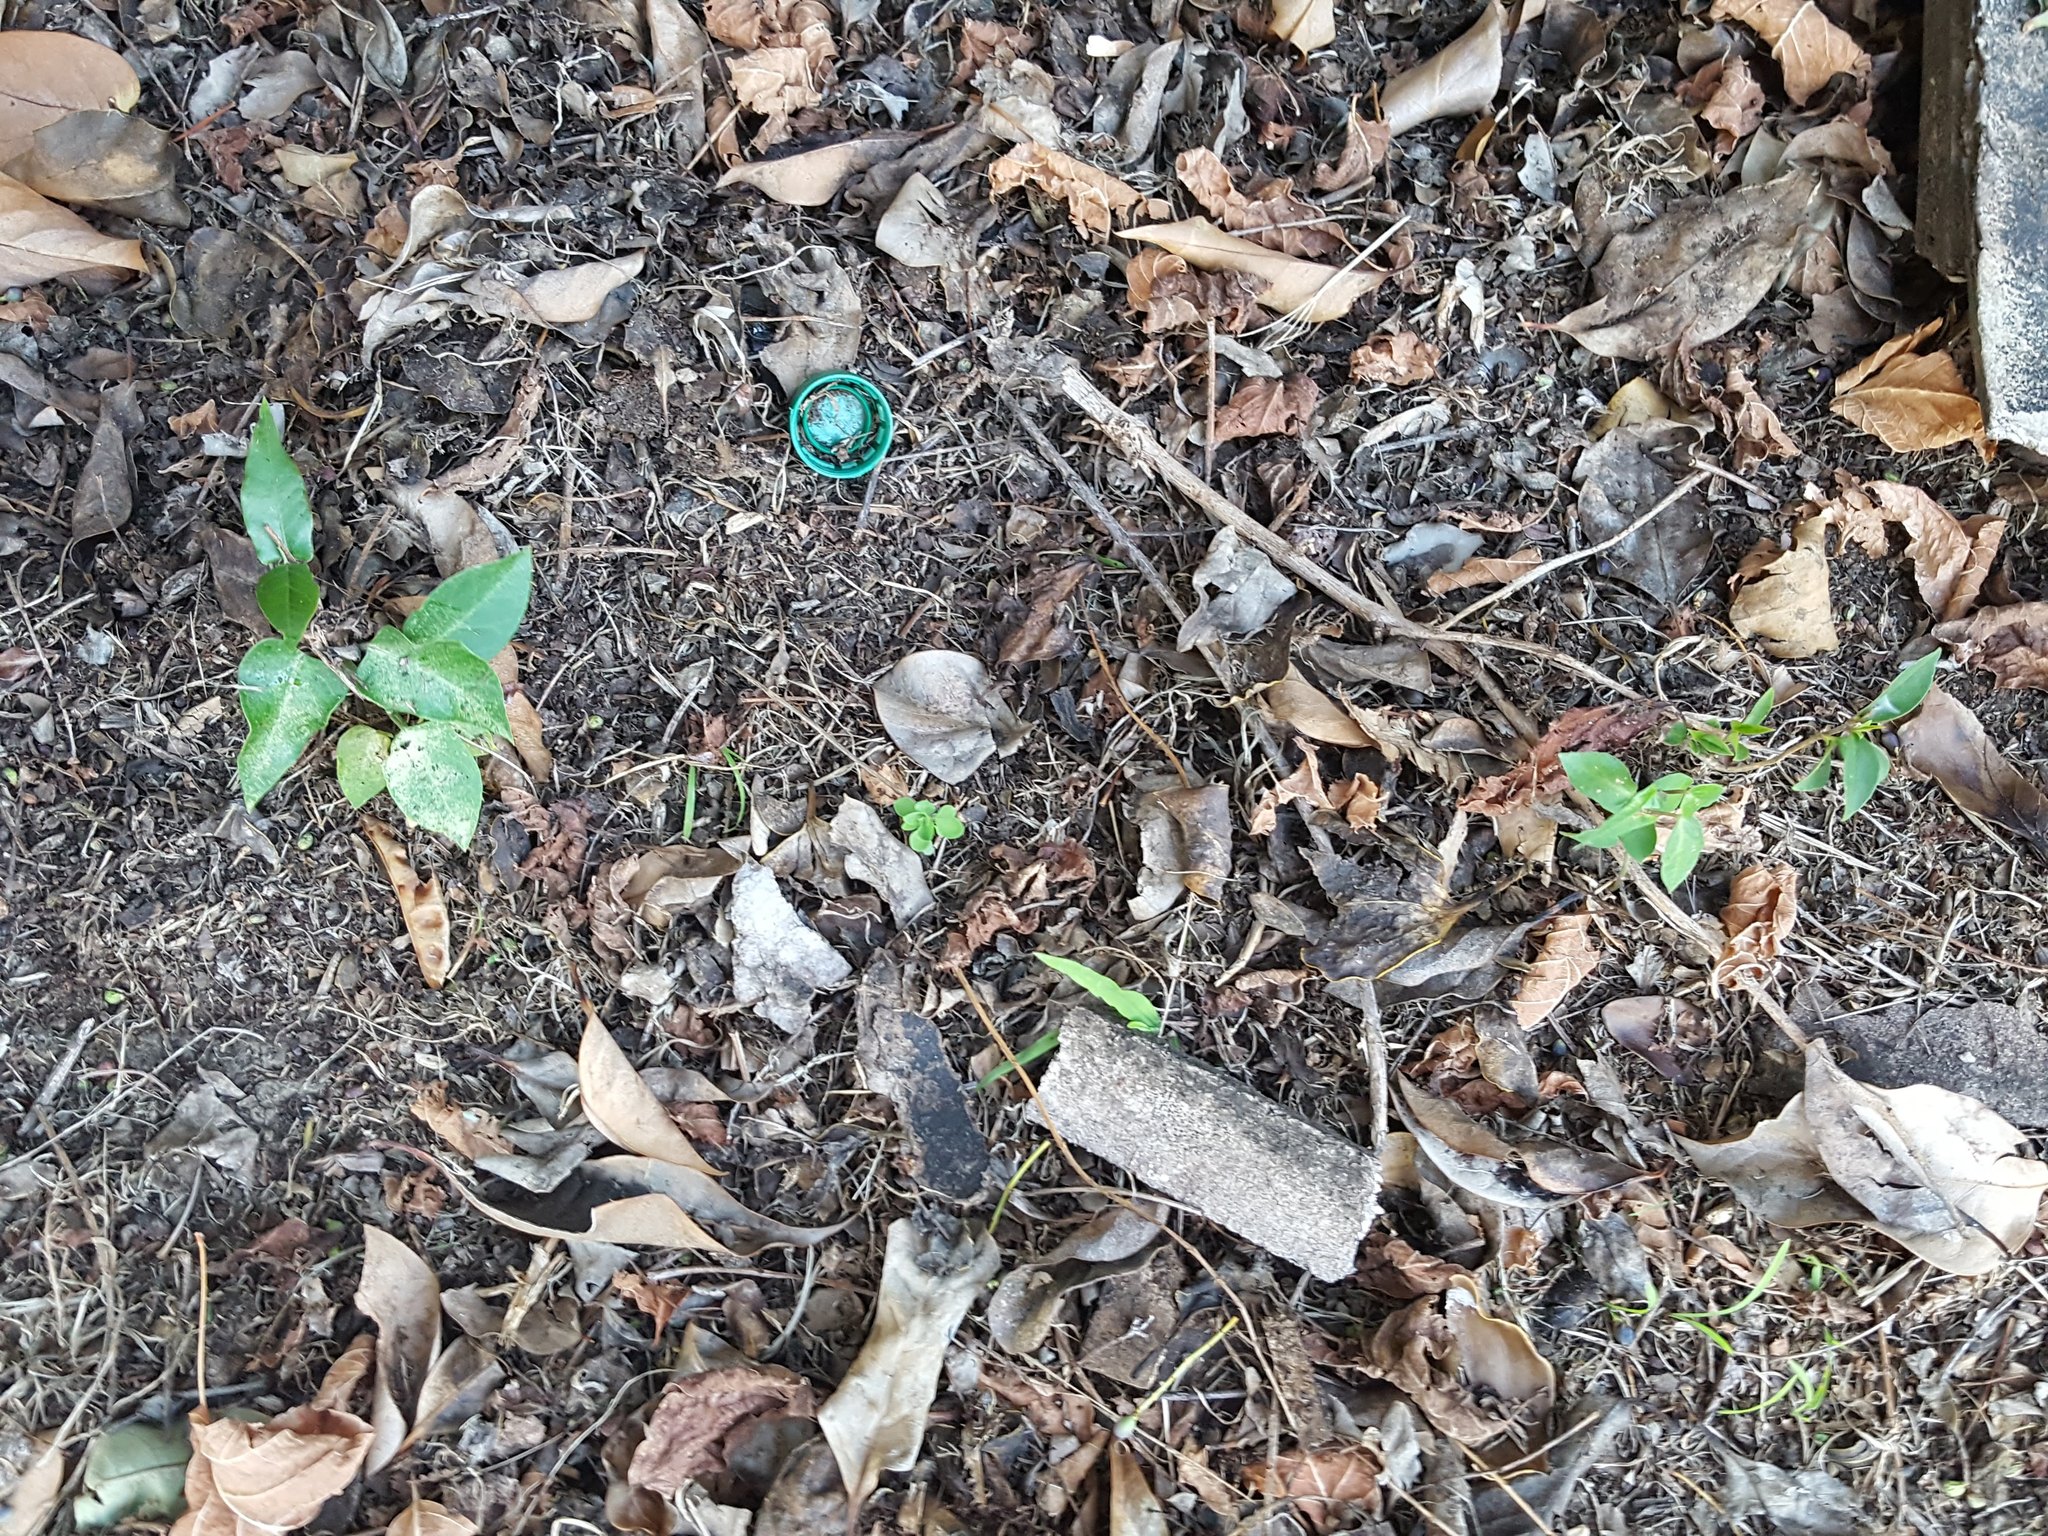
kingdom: Plantae
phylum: Tracheophyta
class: Magnoliopsida
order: Gentianales
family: Apocynaceae
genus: Araujia
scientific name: Araujia sericifera
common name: White bladderflower
